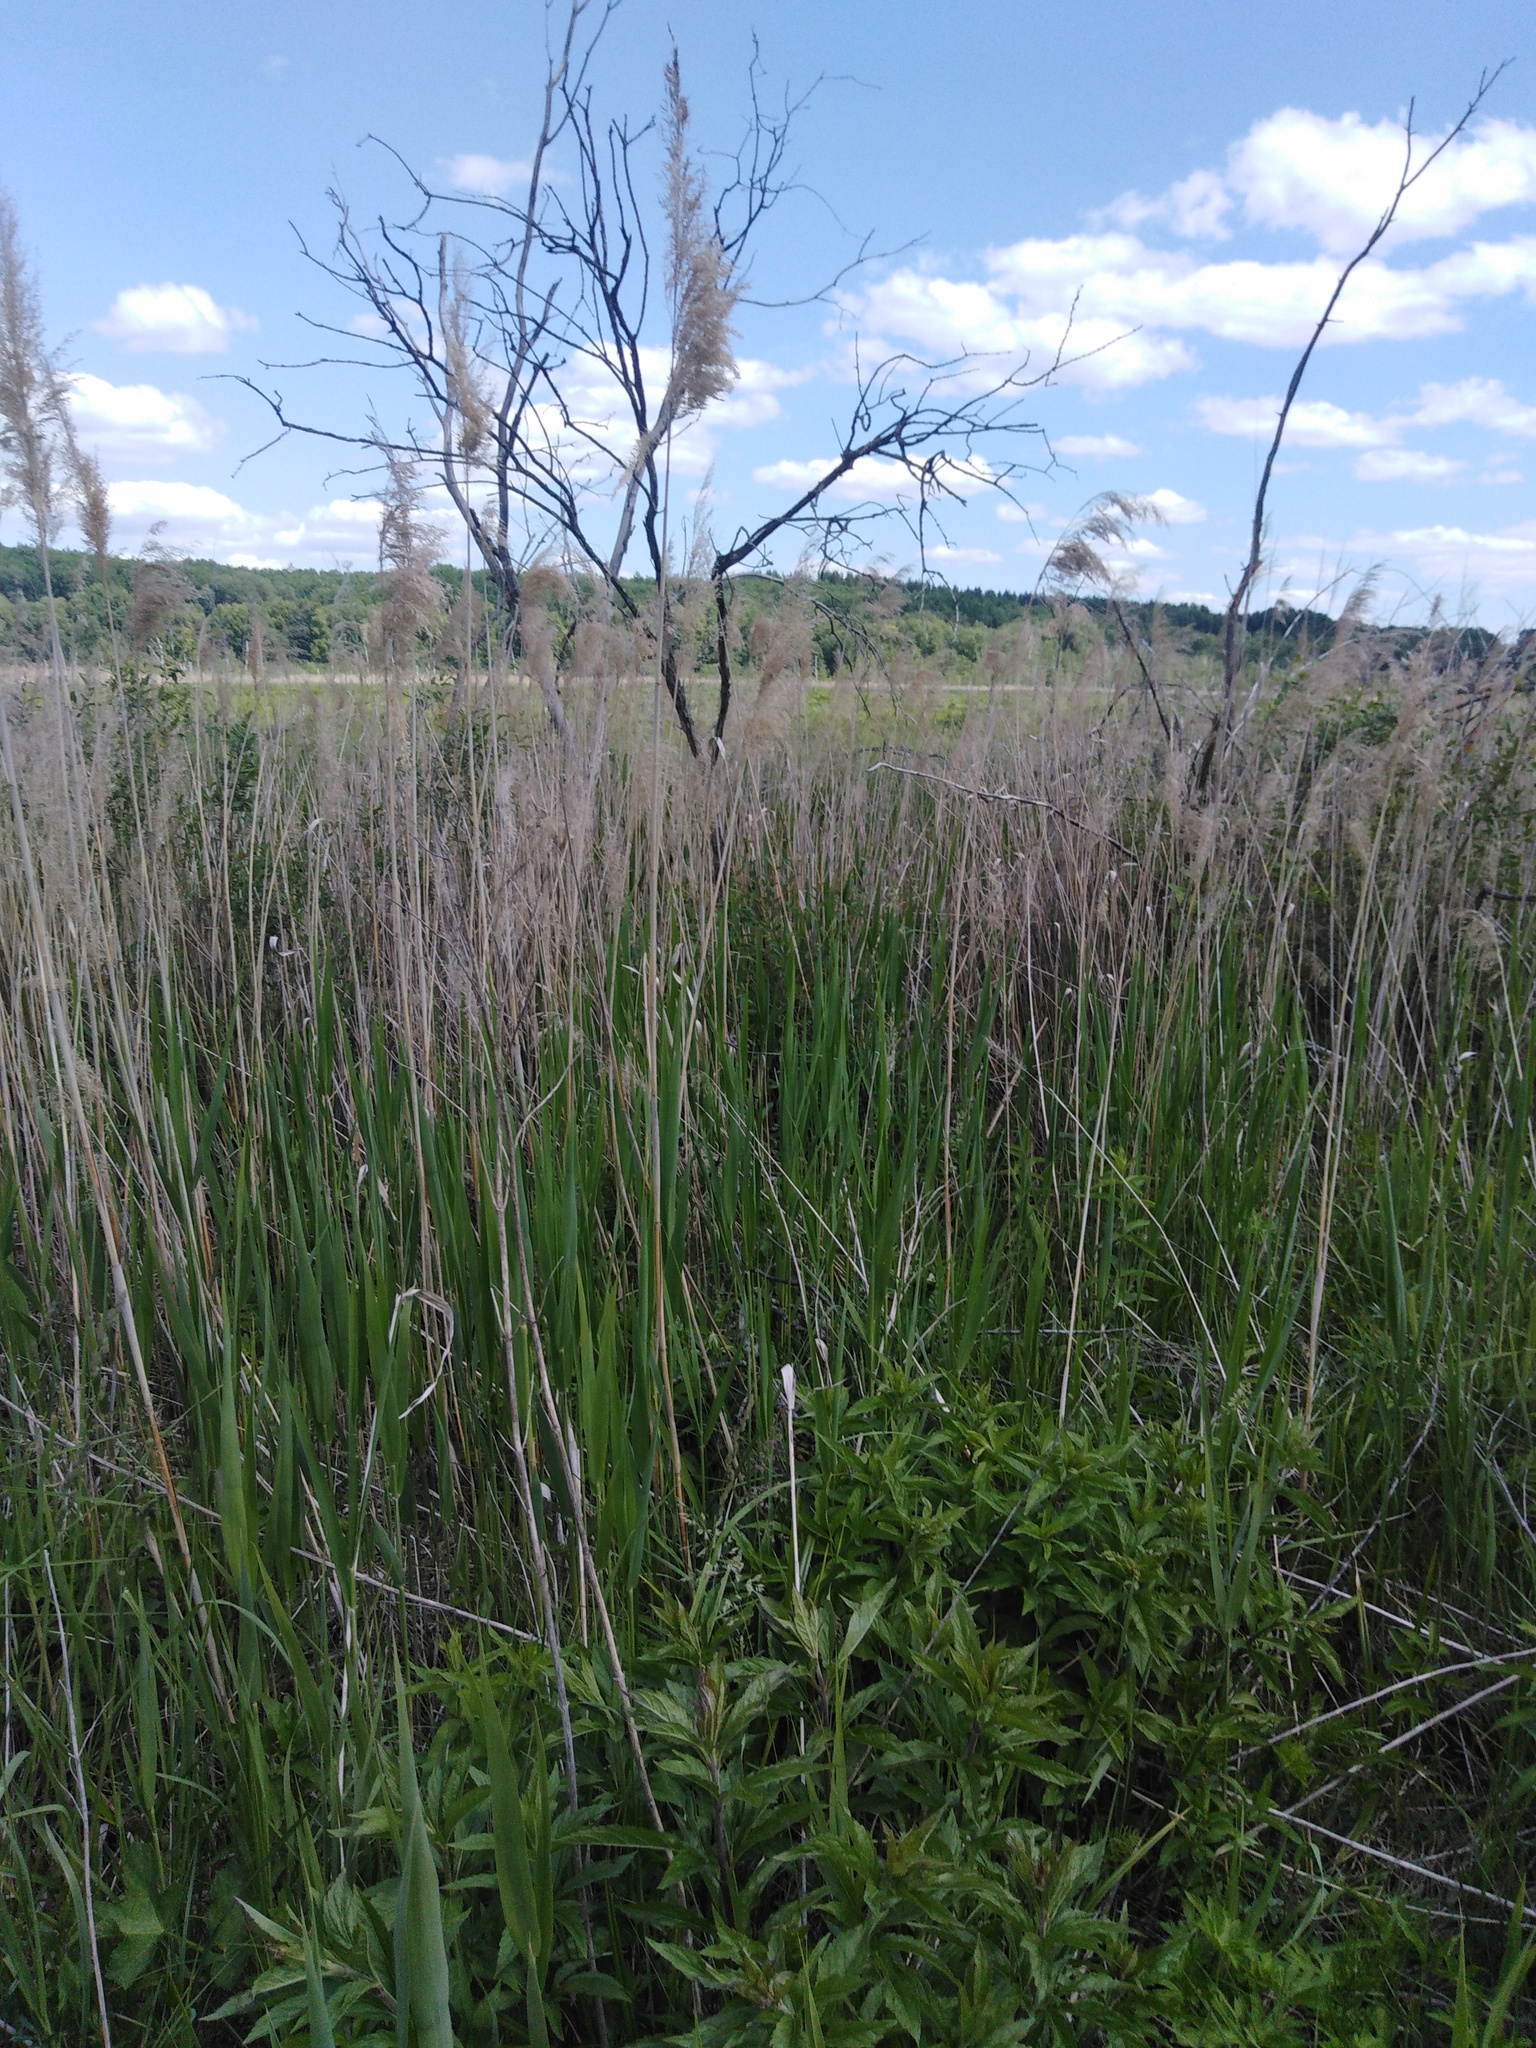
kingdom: Plantae
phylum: Tracheophyta
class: Liliopsida
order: Poales
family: Poaceae
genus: Phragmites
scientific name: Phragmites australis
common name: Common reed
